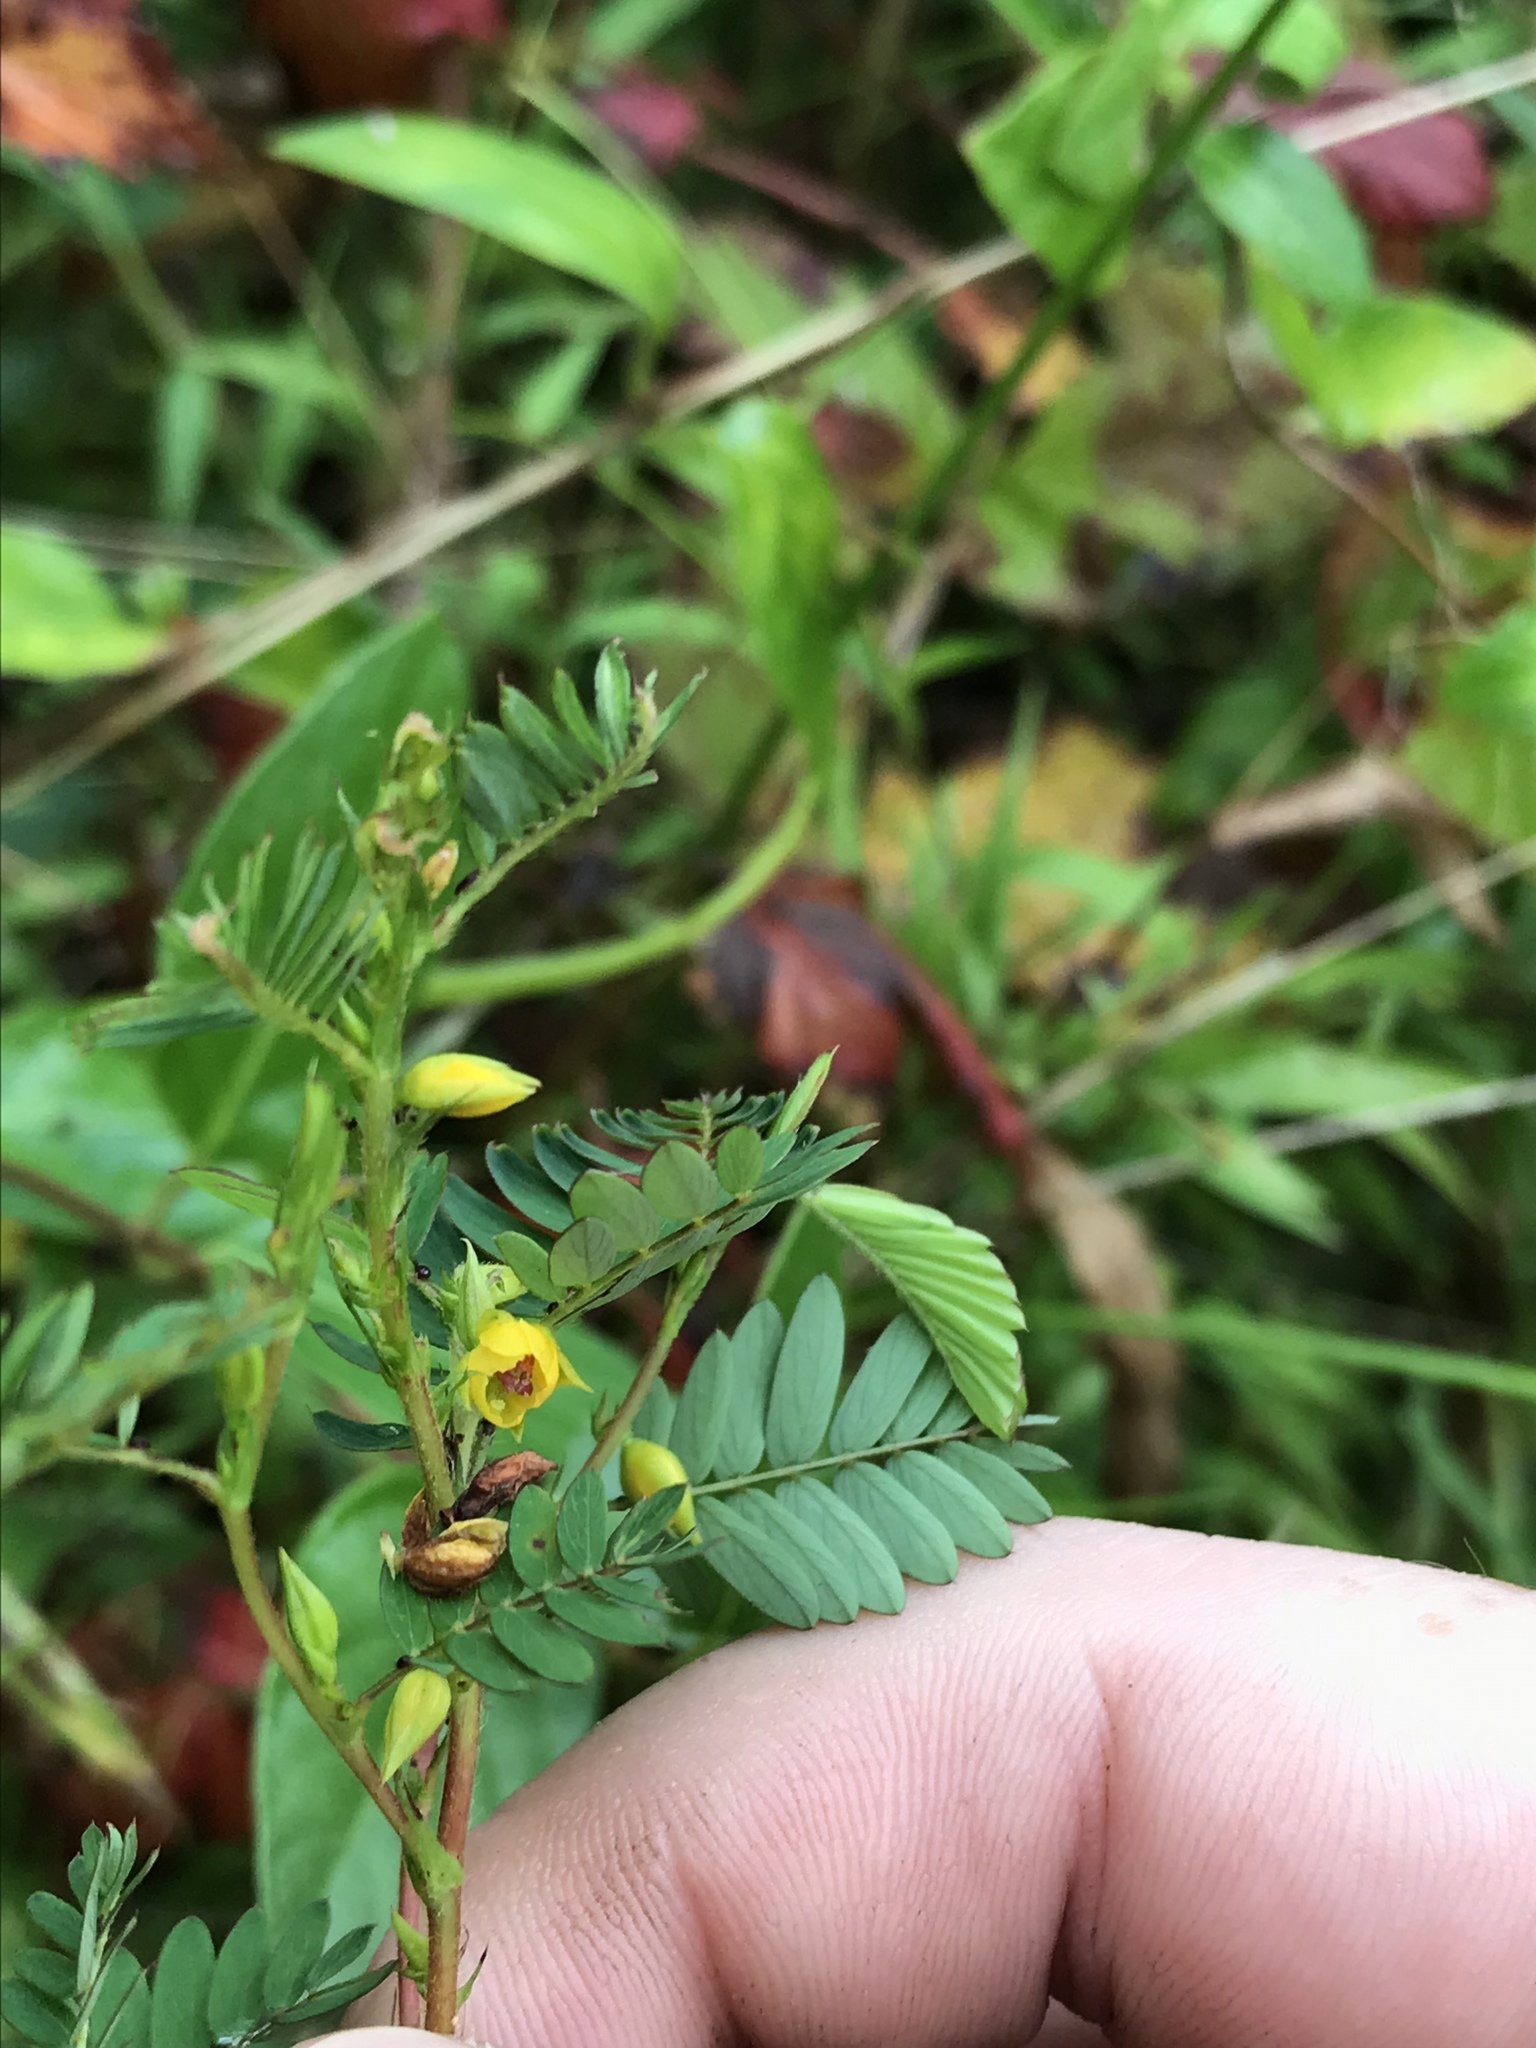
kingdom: Plantae
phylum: Tracheophyta
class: Magnoliopsida
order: Fabales
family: Fabaceae
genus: Chamaecrista
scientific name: Chamaecrista nictitans
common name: Sensitive cassia
